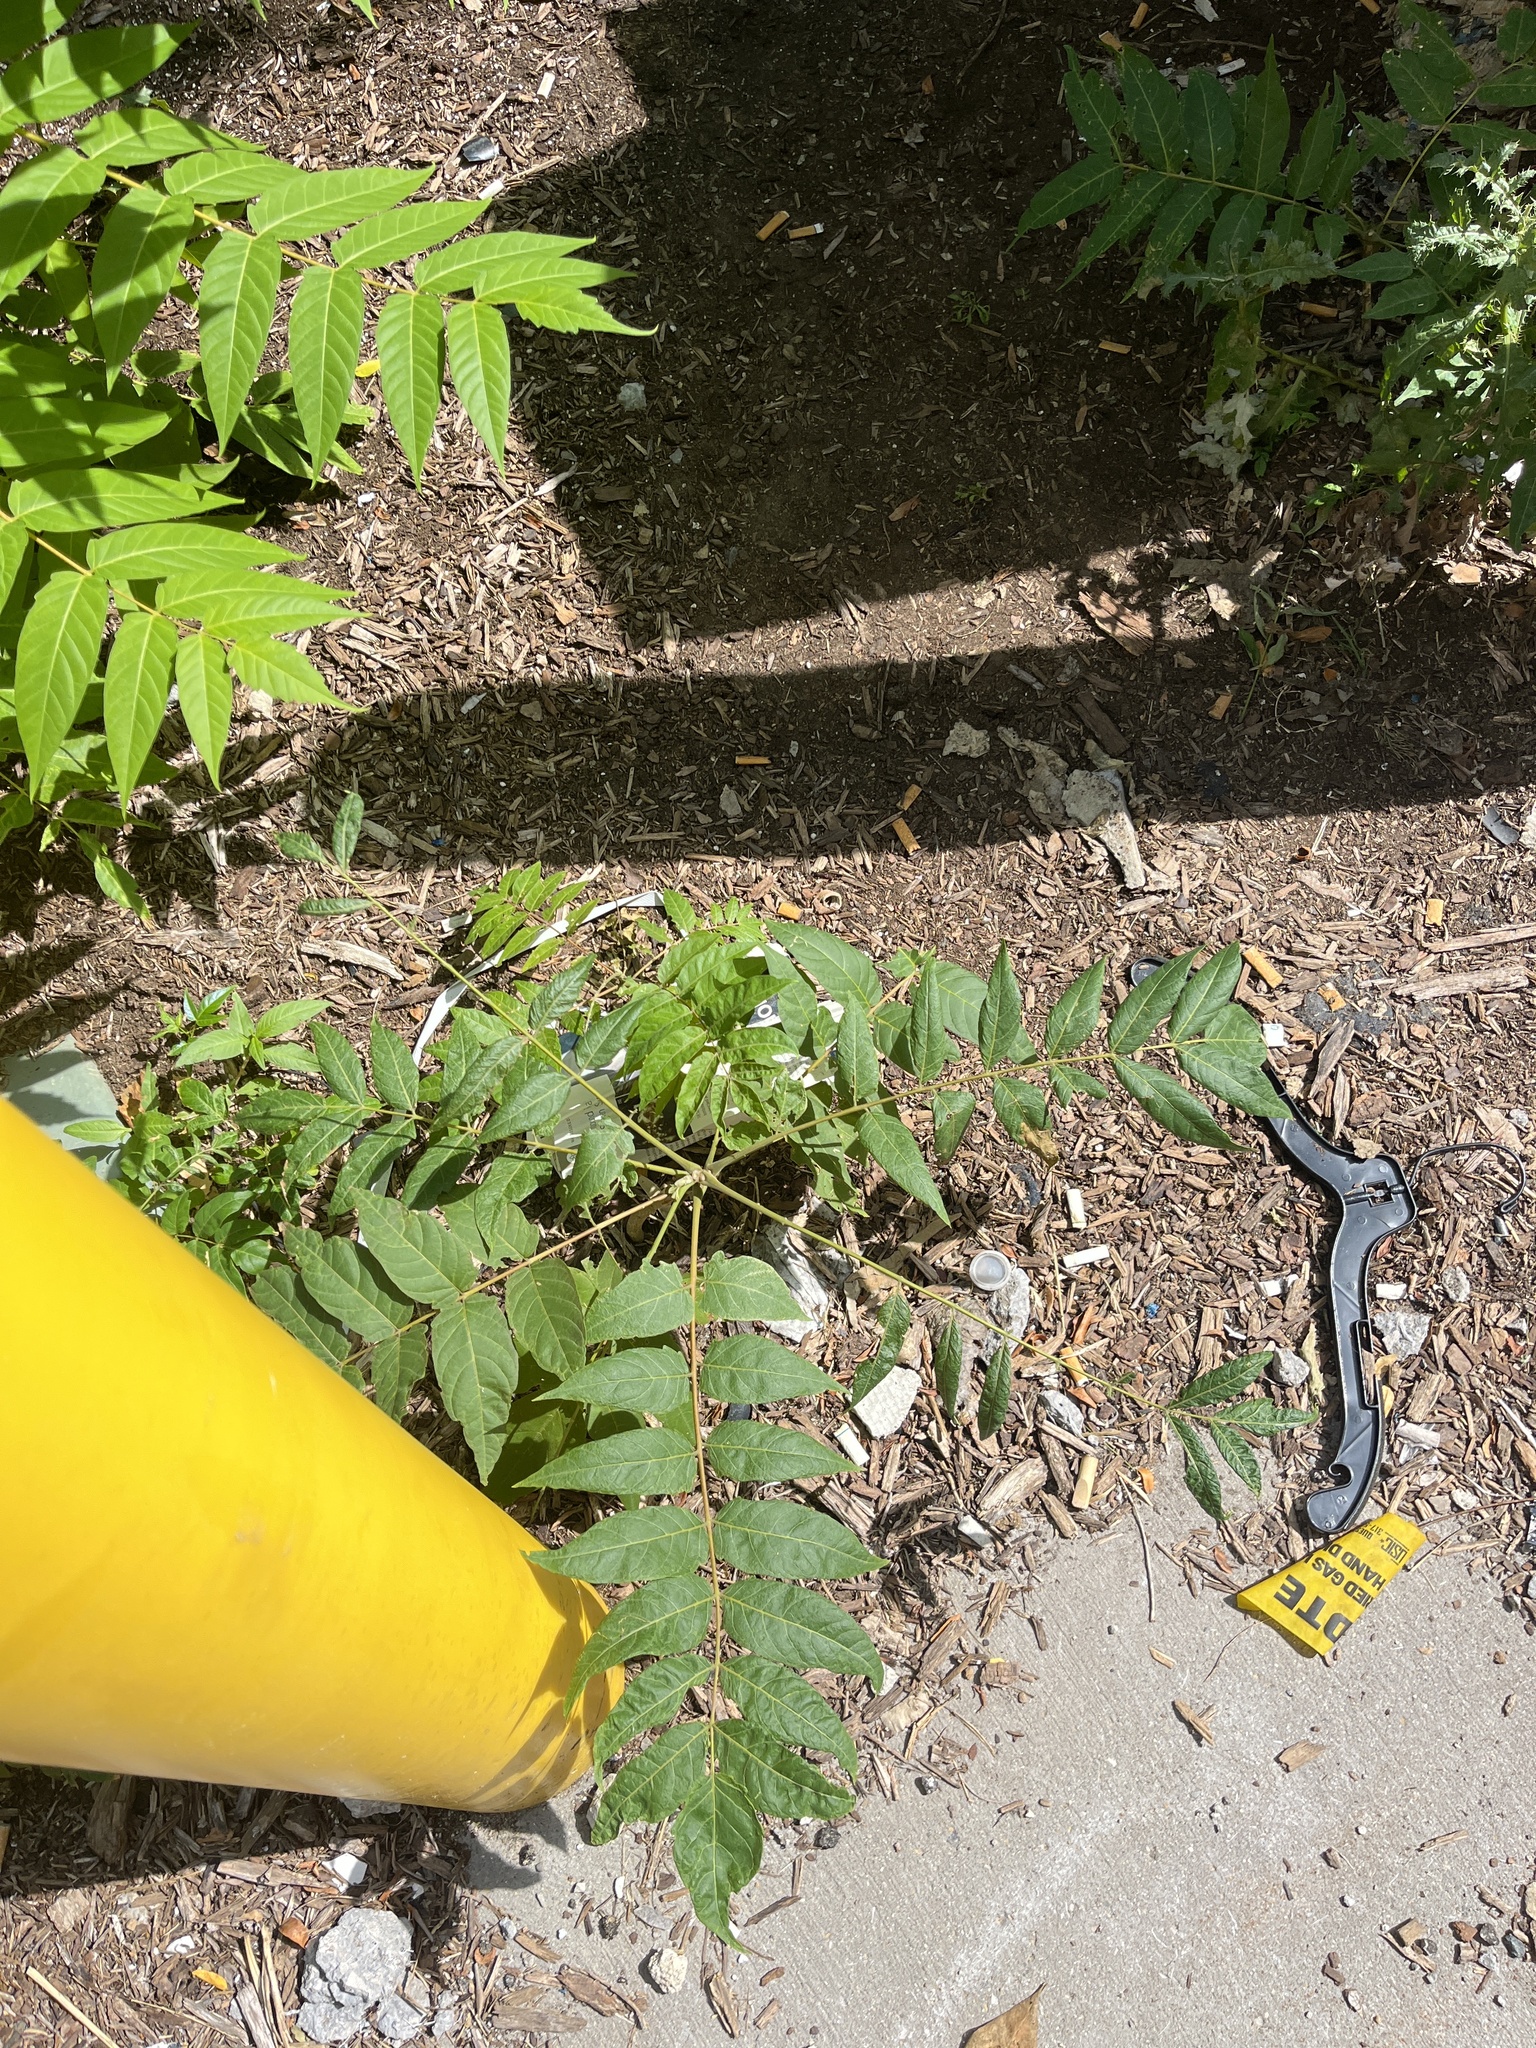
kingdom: Plantae
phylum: Tracheophyta
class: Magnoliopsida
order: Sapindales
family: Simaroubaceae
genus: Ailanthus
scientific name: Ailanthus altissima
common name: Tree-of-heaven
